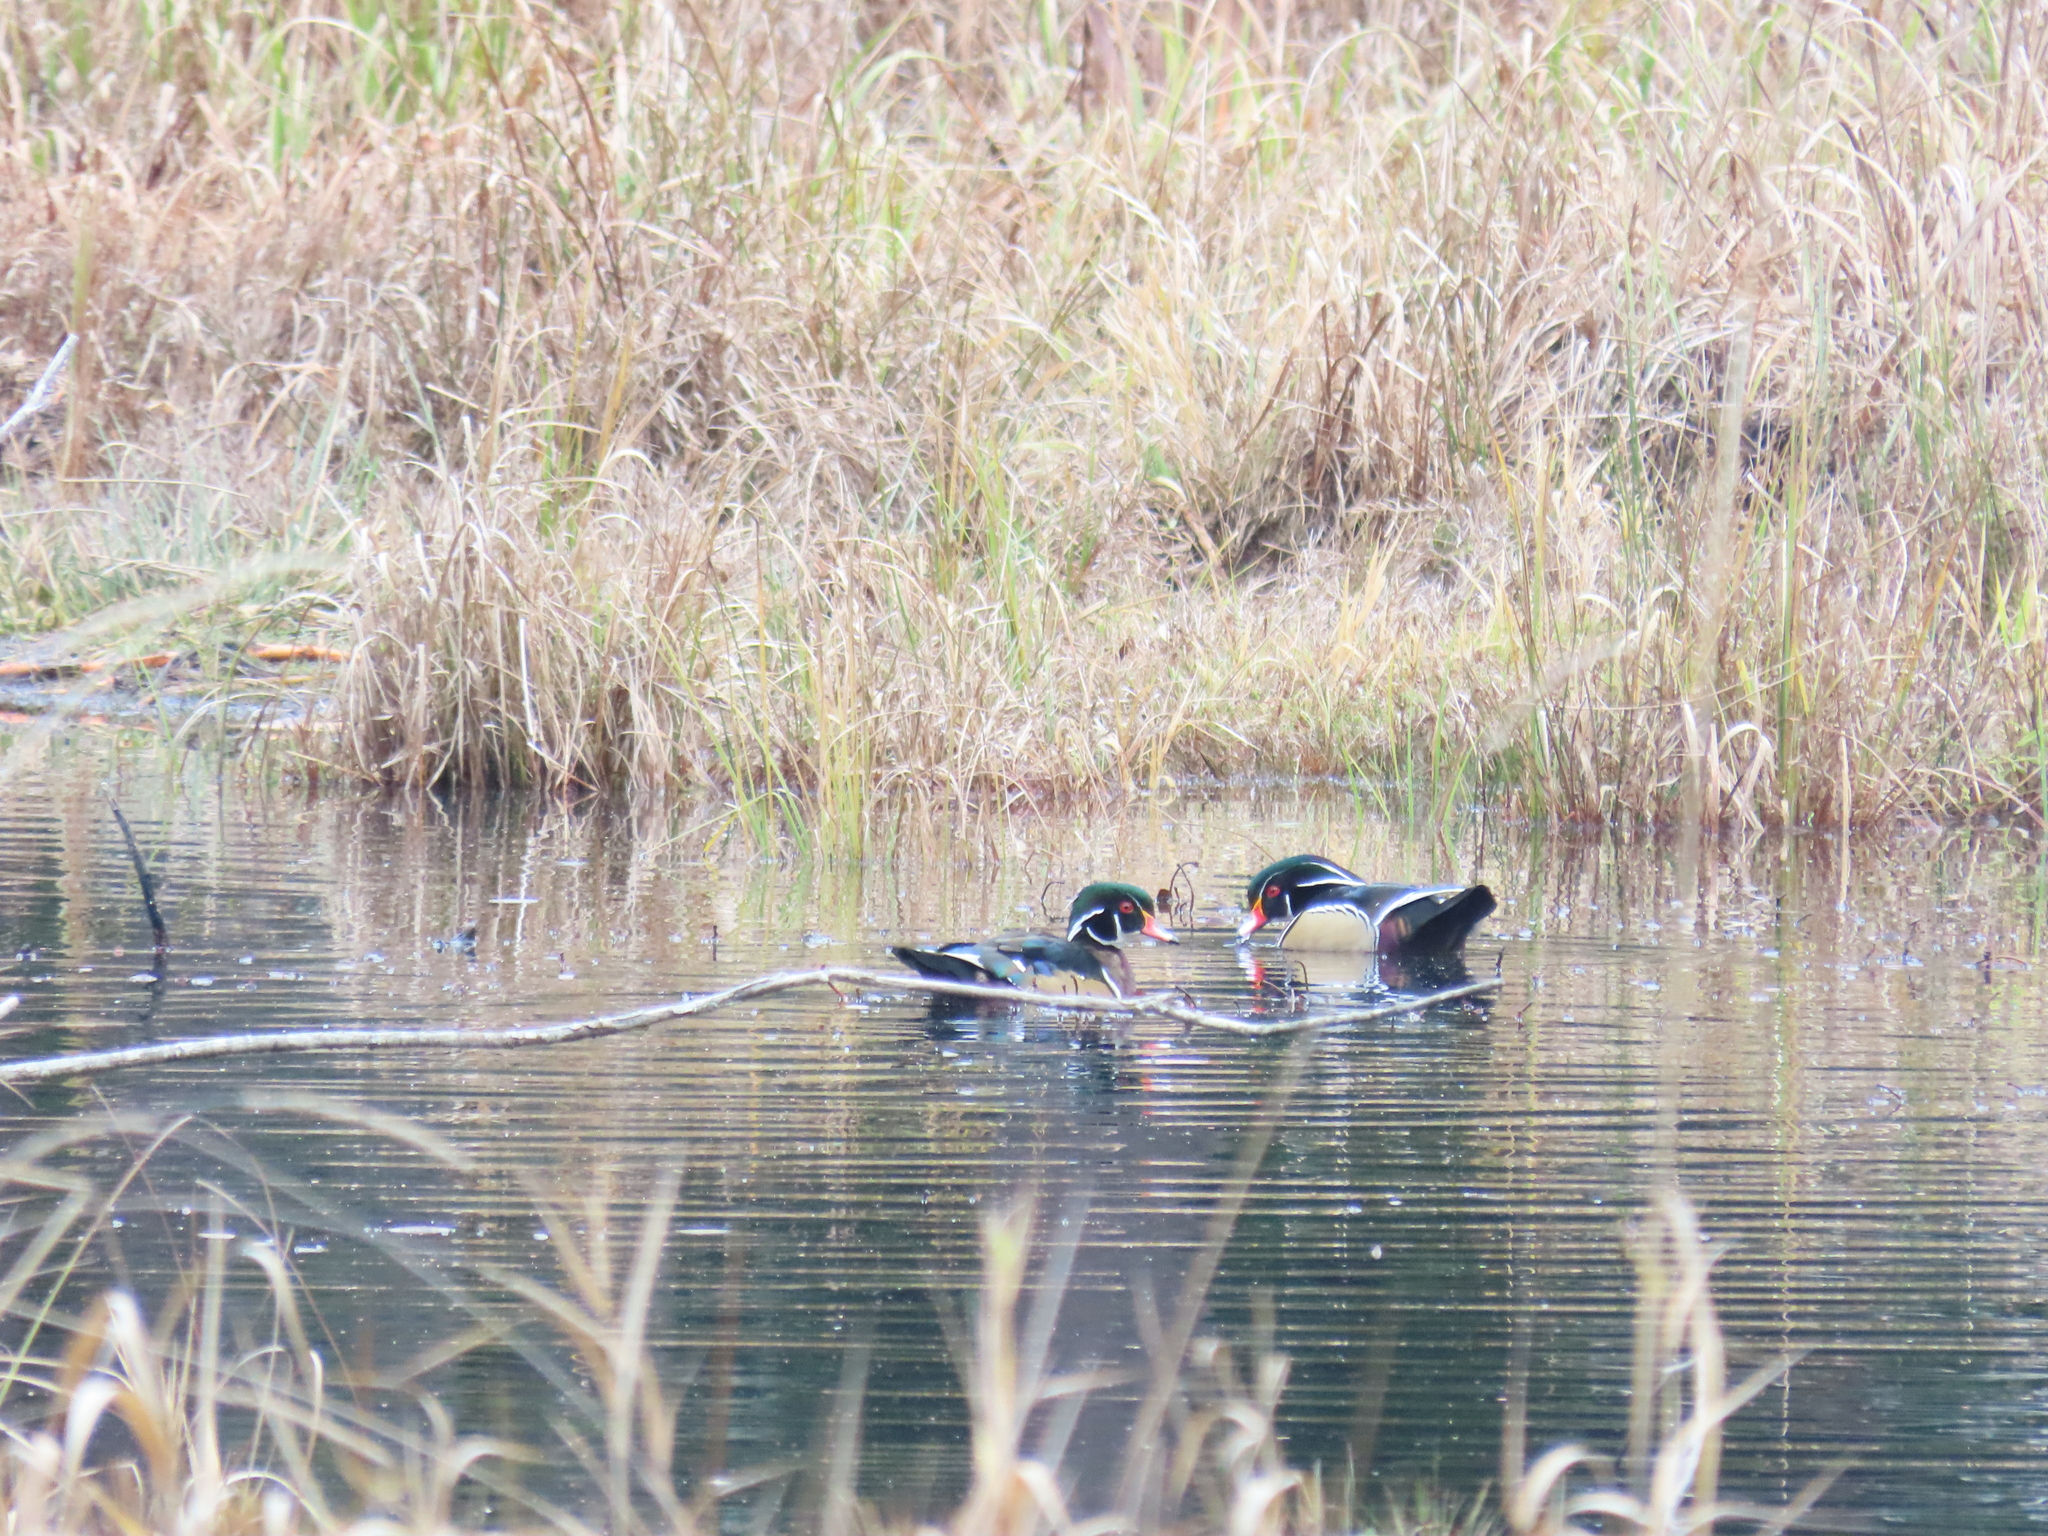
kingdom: Animalia
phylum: Chordata
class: Aves
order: Anseriformes
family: Anatidae
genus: Aix
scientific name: Aix sponsa
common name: Wood duck
